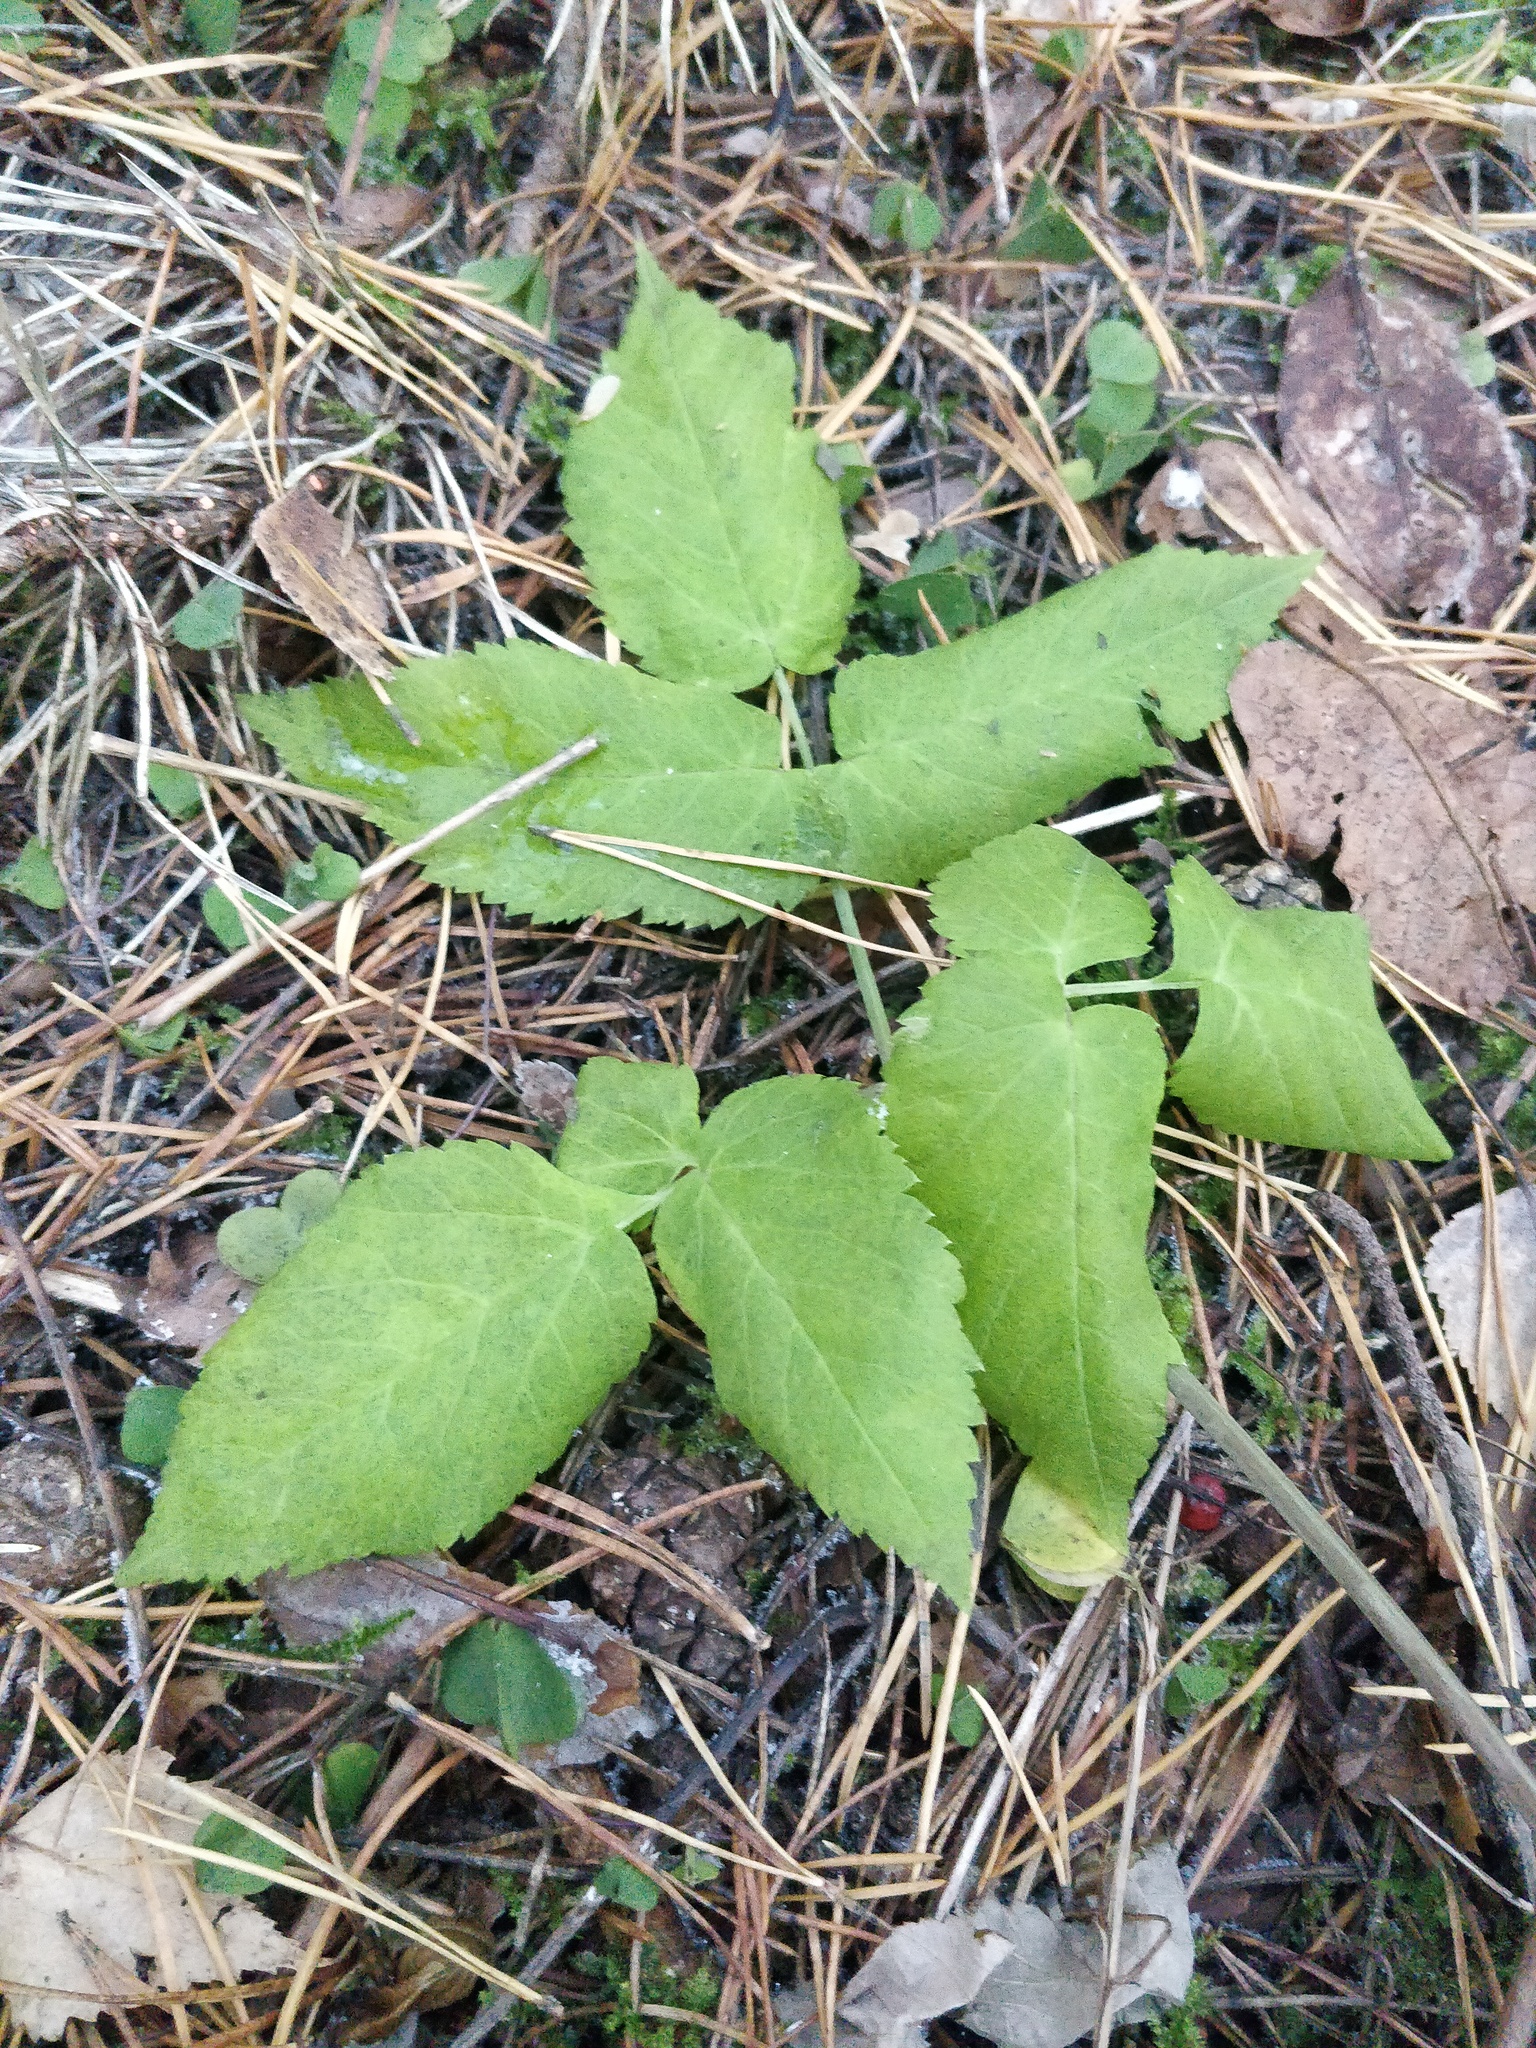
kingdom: Plantae
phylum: Tracheophyta
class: Magnoliopsida
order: Apiales
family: Apiaceae
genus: Aegopodium
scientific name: Aegopodium podagraria
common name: Ground-elder
